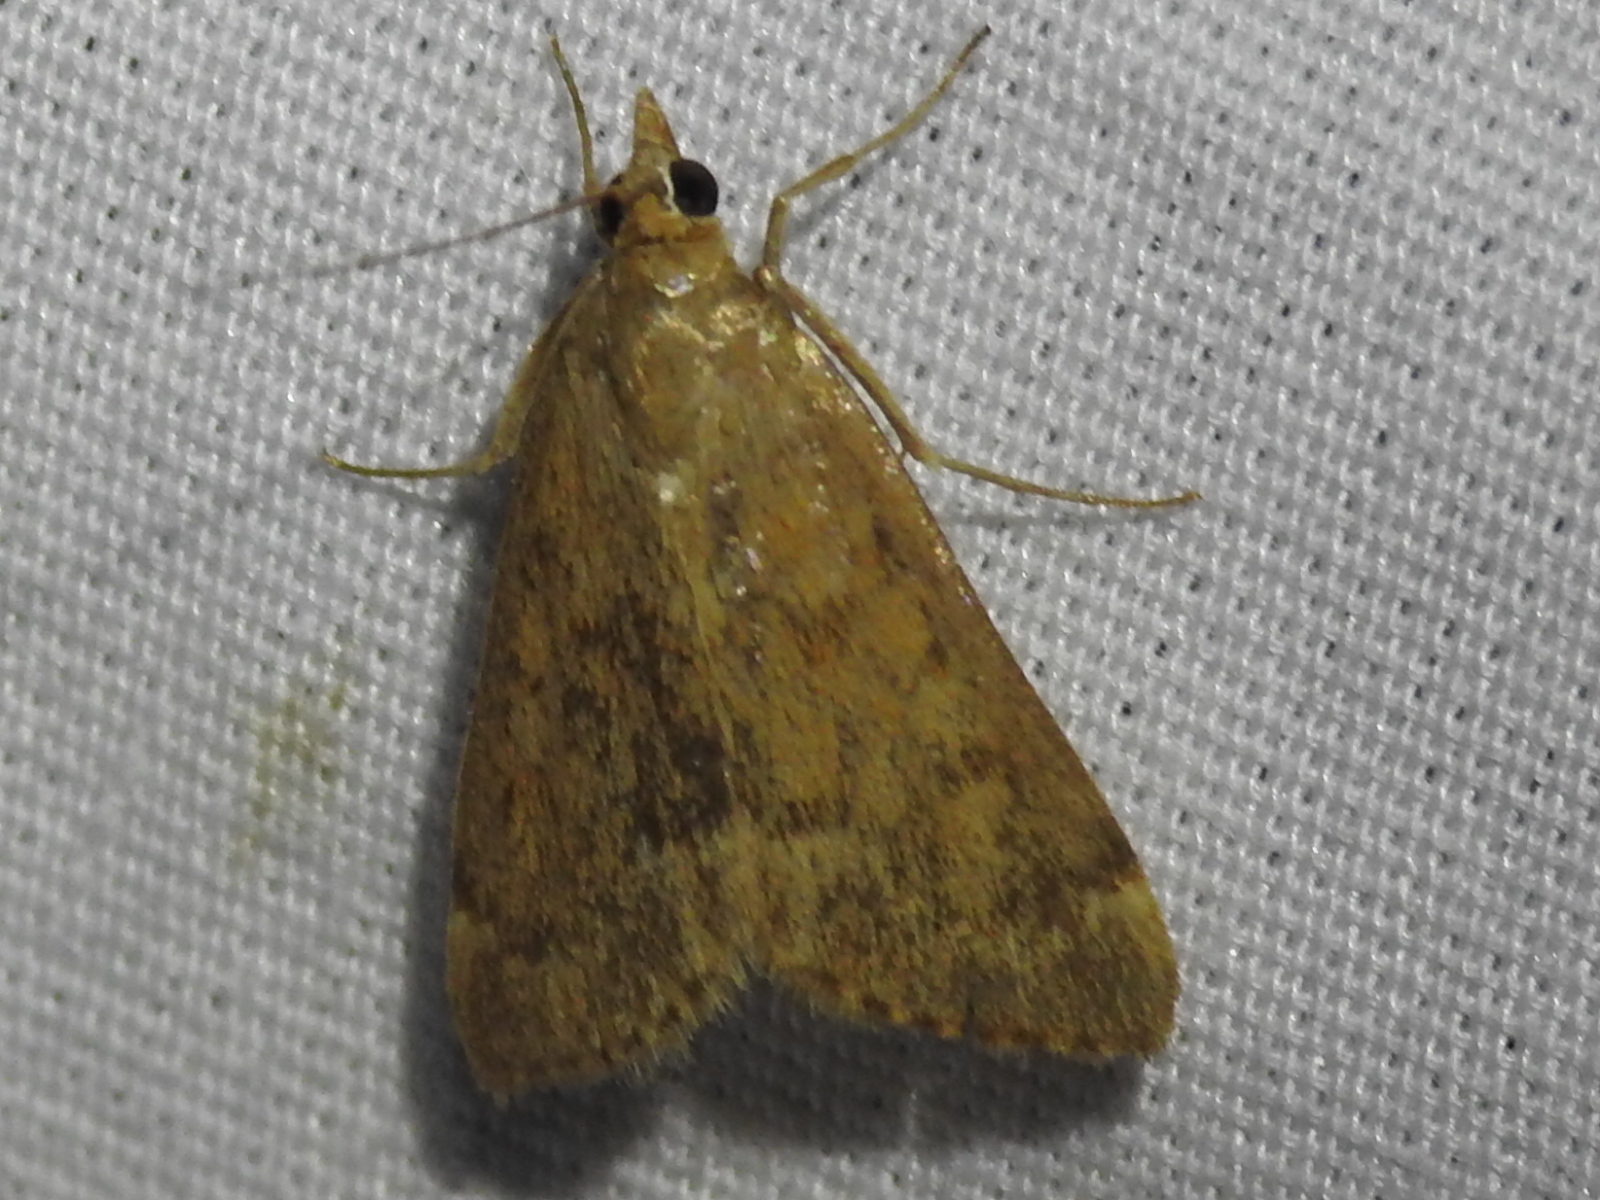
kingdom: Animalia
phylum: Arthropoda
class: Insecta
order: Lepidoptera
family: Crambidae
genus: Achyra
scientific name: Achyra rantalis
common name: Garden webworm
